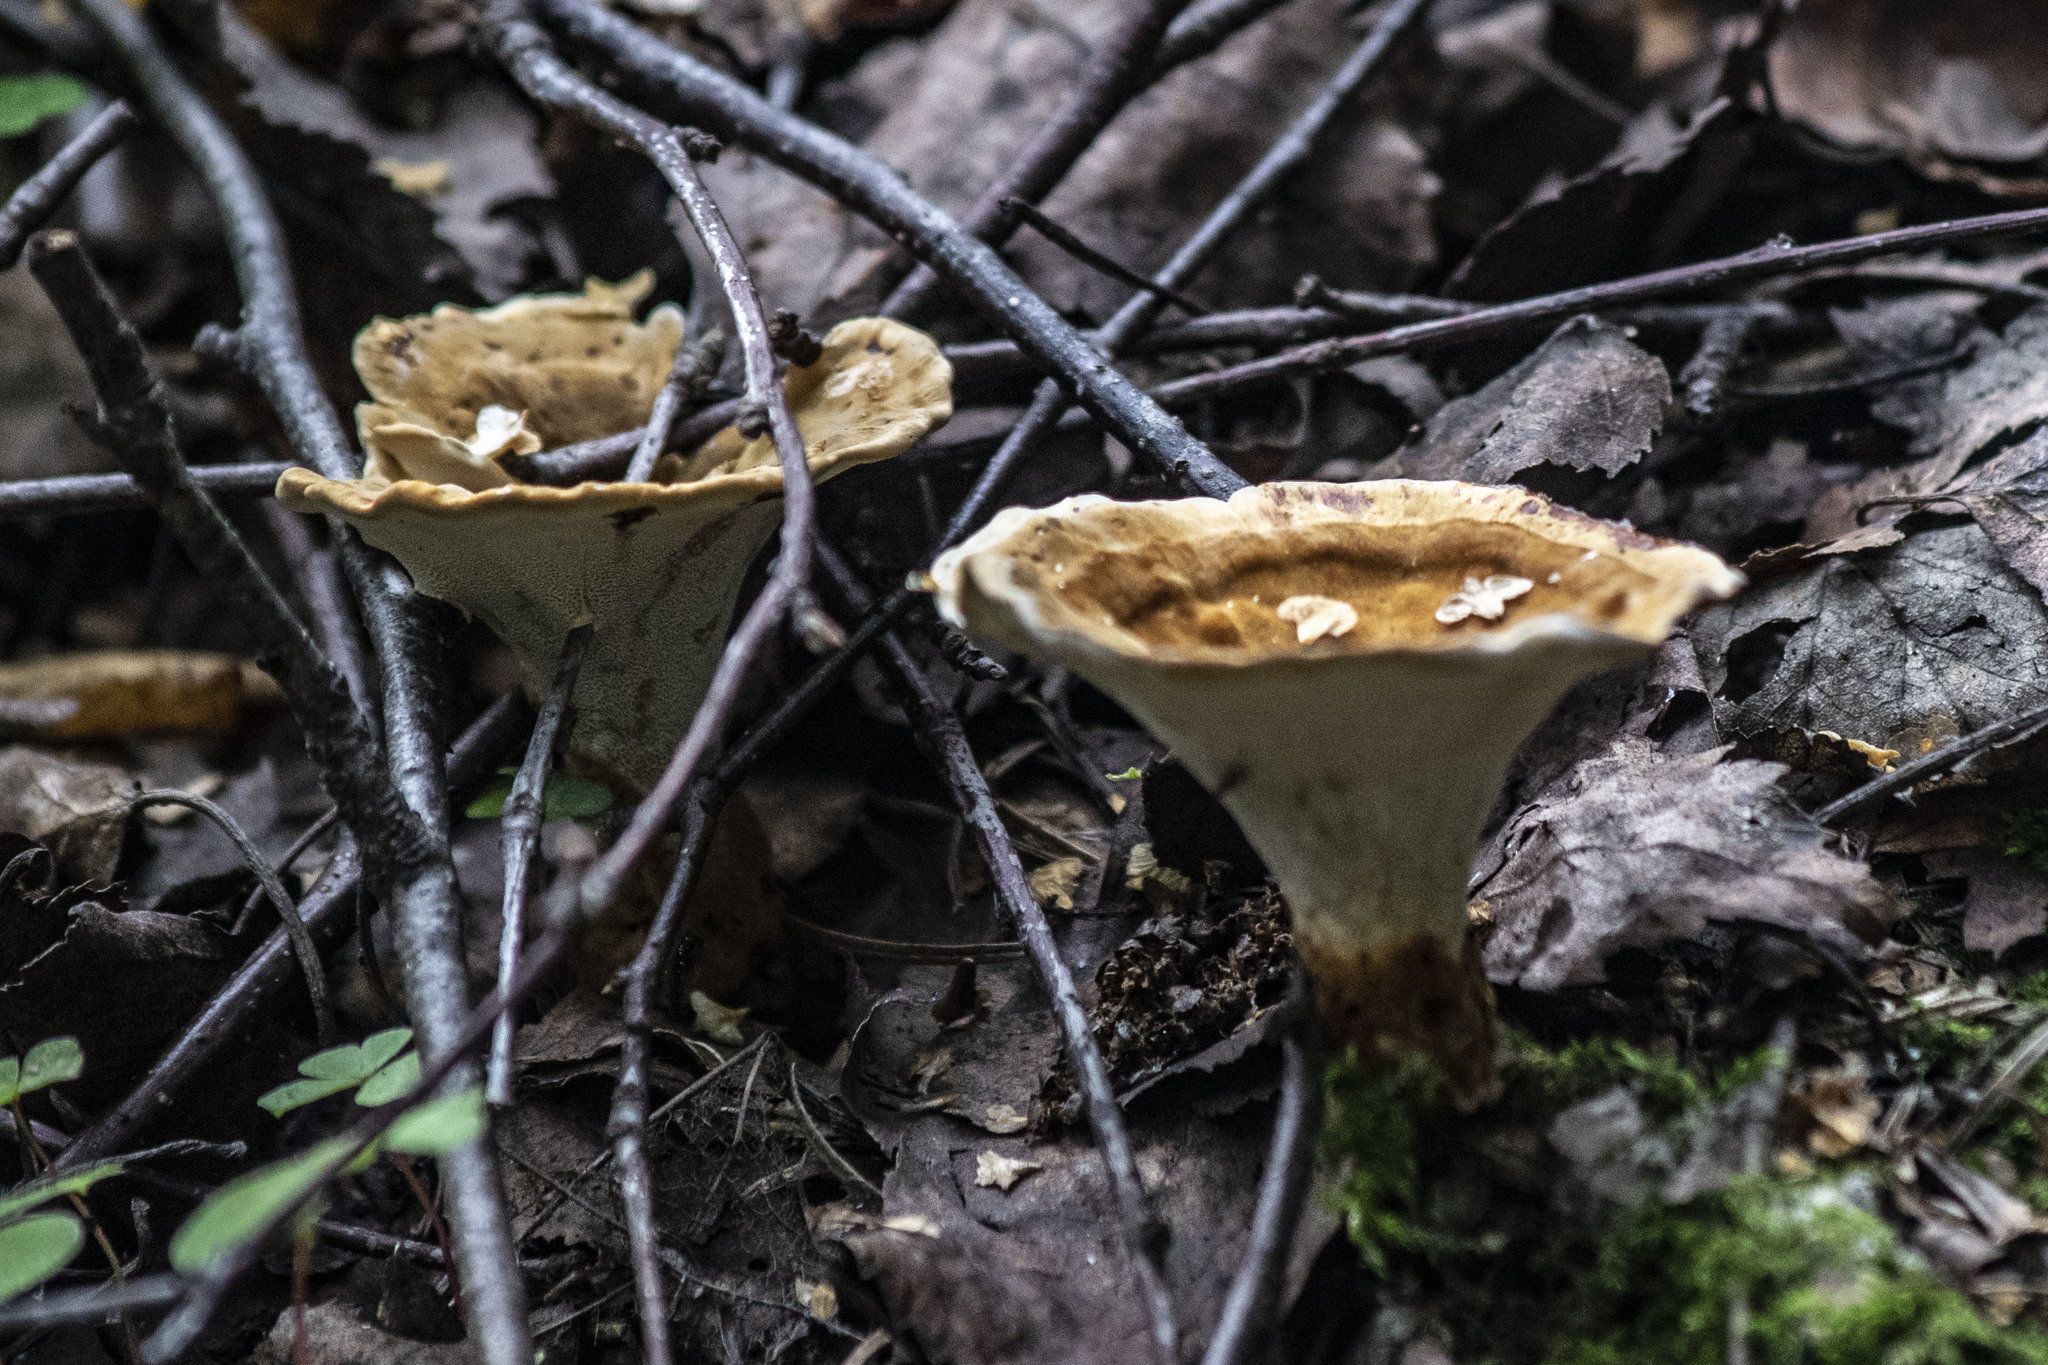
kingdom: Fungi
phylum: Basidiomycota
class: Agaricomycetes
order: Hymenochaetales
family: Hymenochaetaceae
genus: Coltricia
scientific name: Coltricia perennis
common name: Tiger's eye
